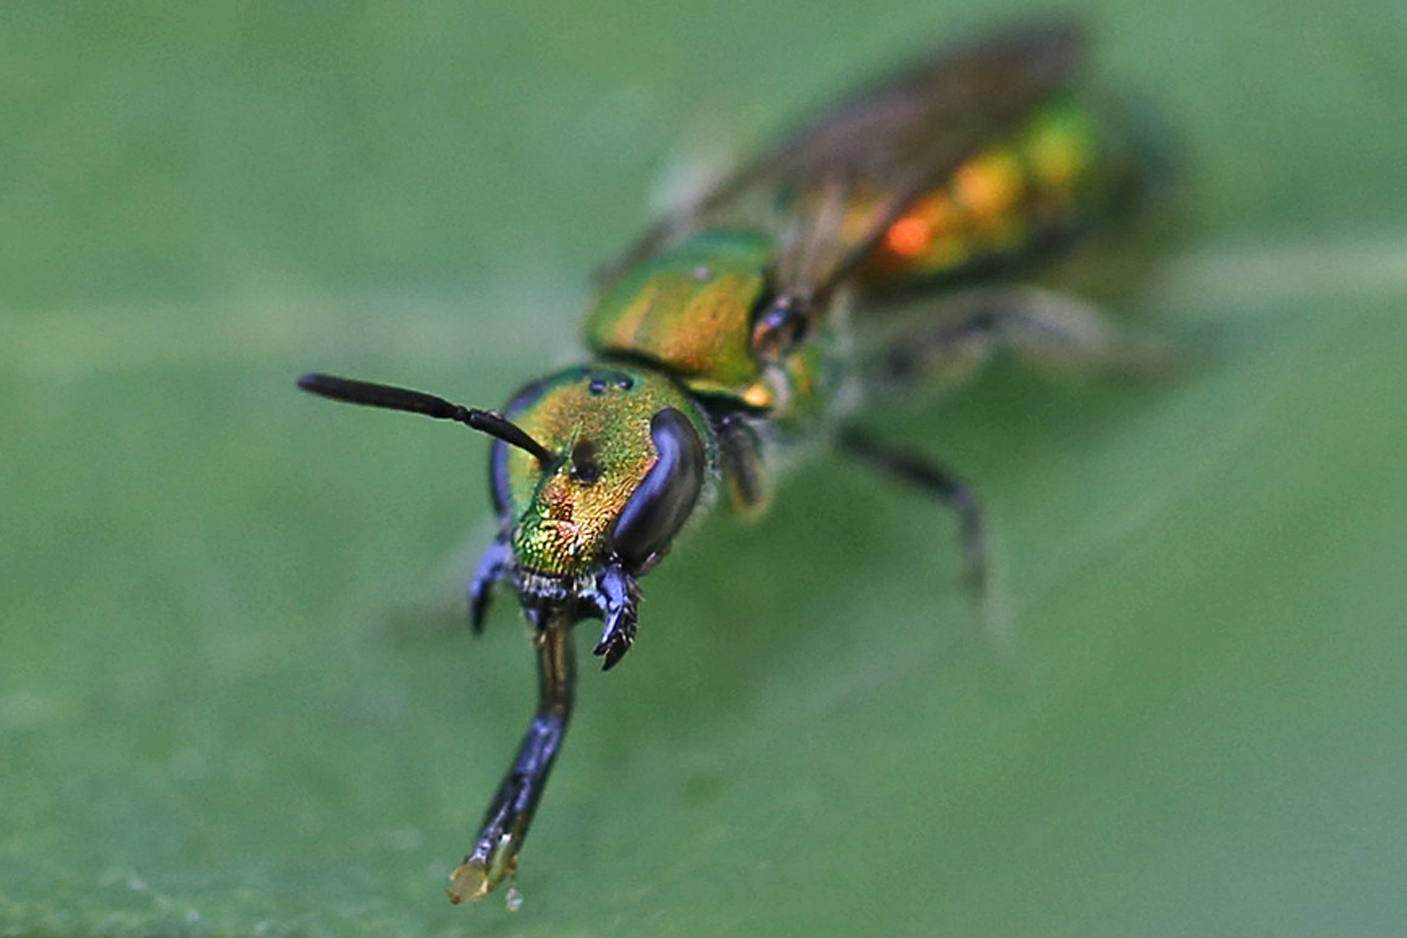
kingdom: Animalia
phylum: Arthropoda
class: Insecta
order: Hymenoptera
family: Halictidae
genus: Augochlora
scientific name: Augochlora pura
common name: Pure green sweat bee
